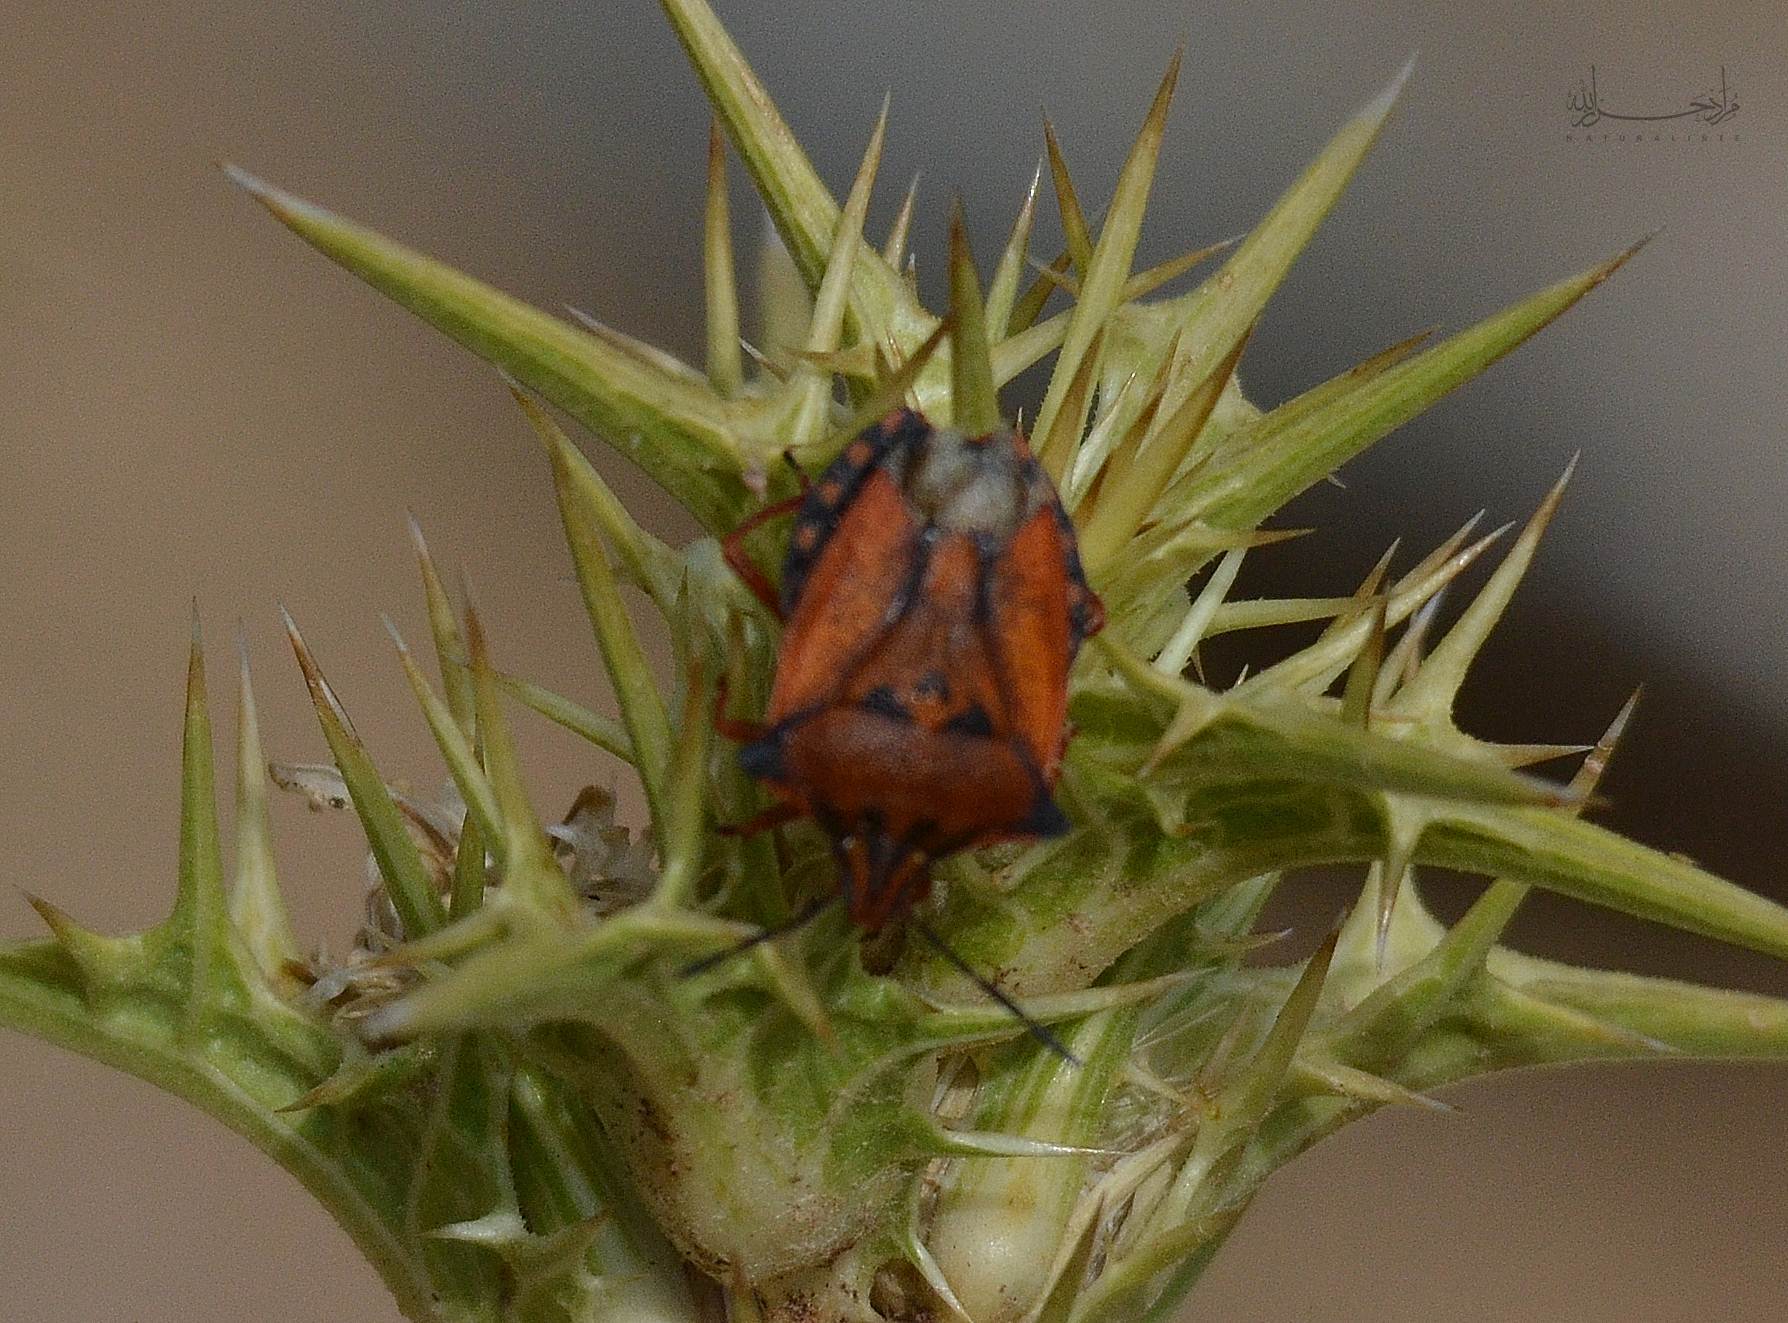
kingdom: Animalia
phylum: Arthropoda
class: Insecta
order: Hemiptera
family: Pentatomidae
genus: Carpocoris
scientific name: Carpocoris mediterraneus
